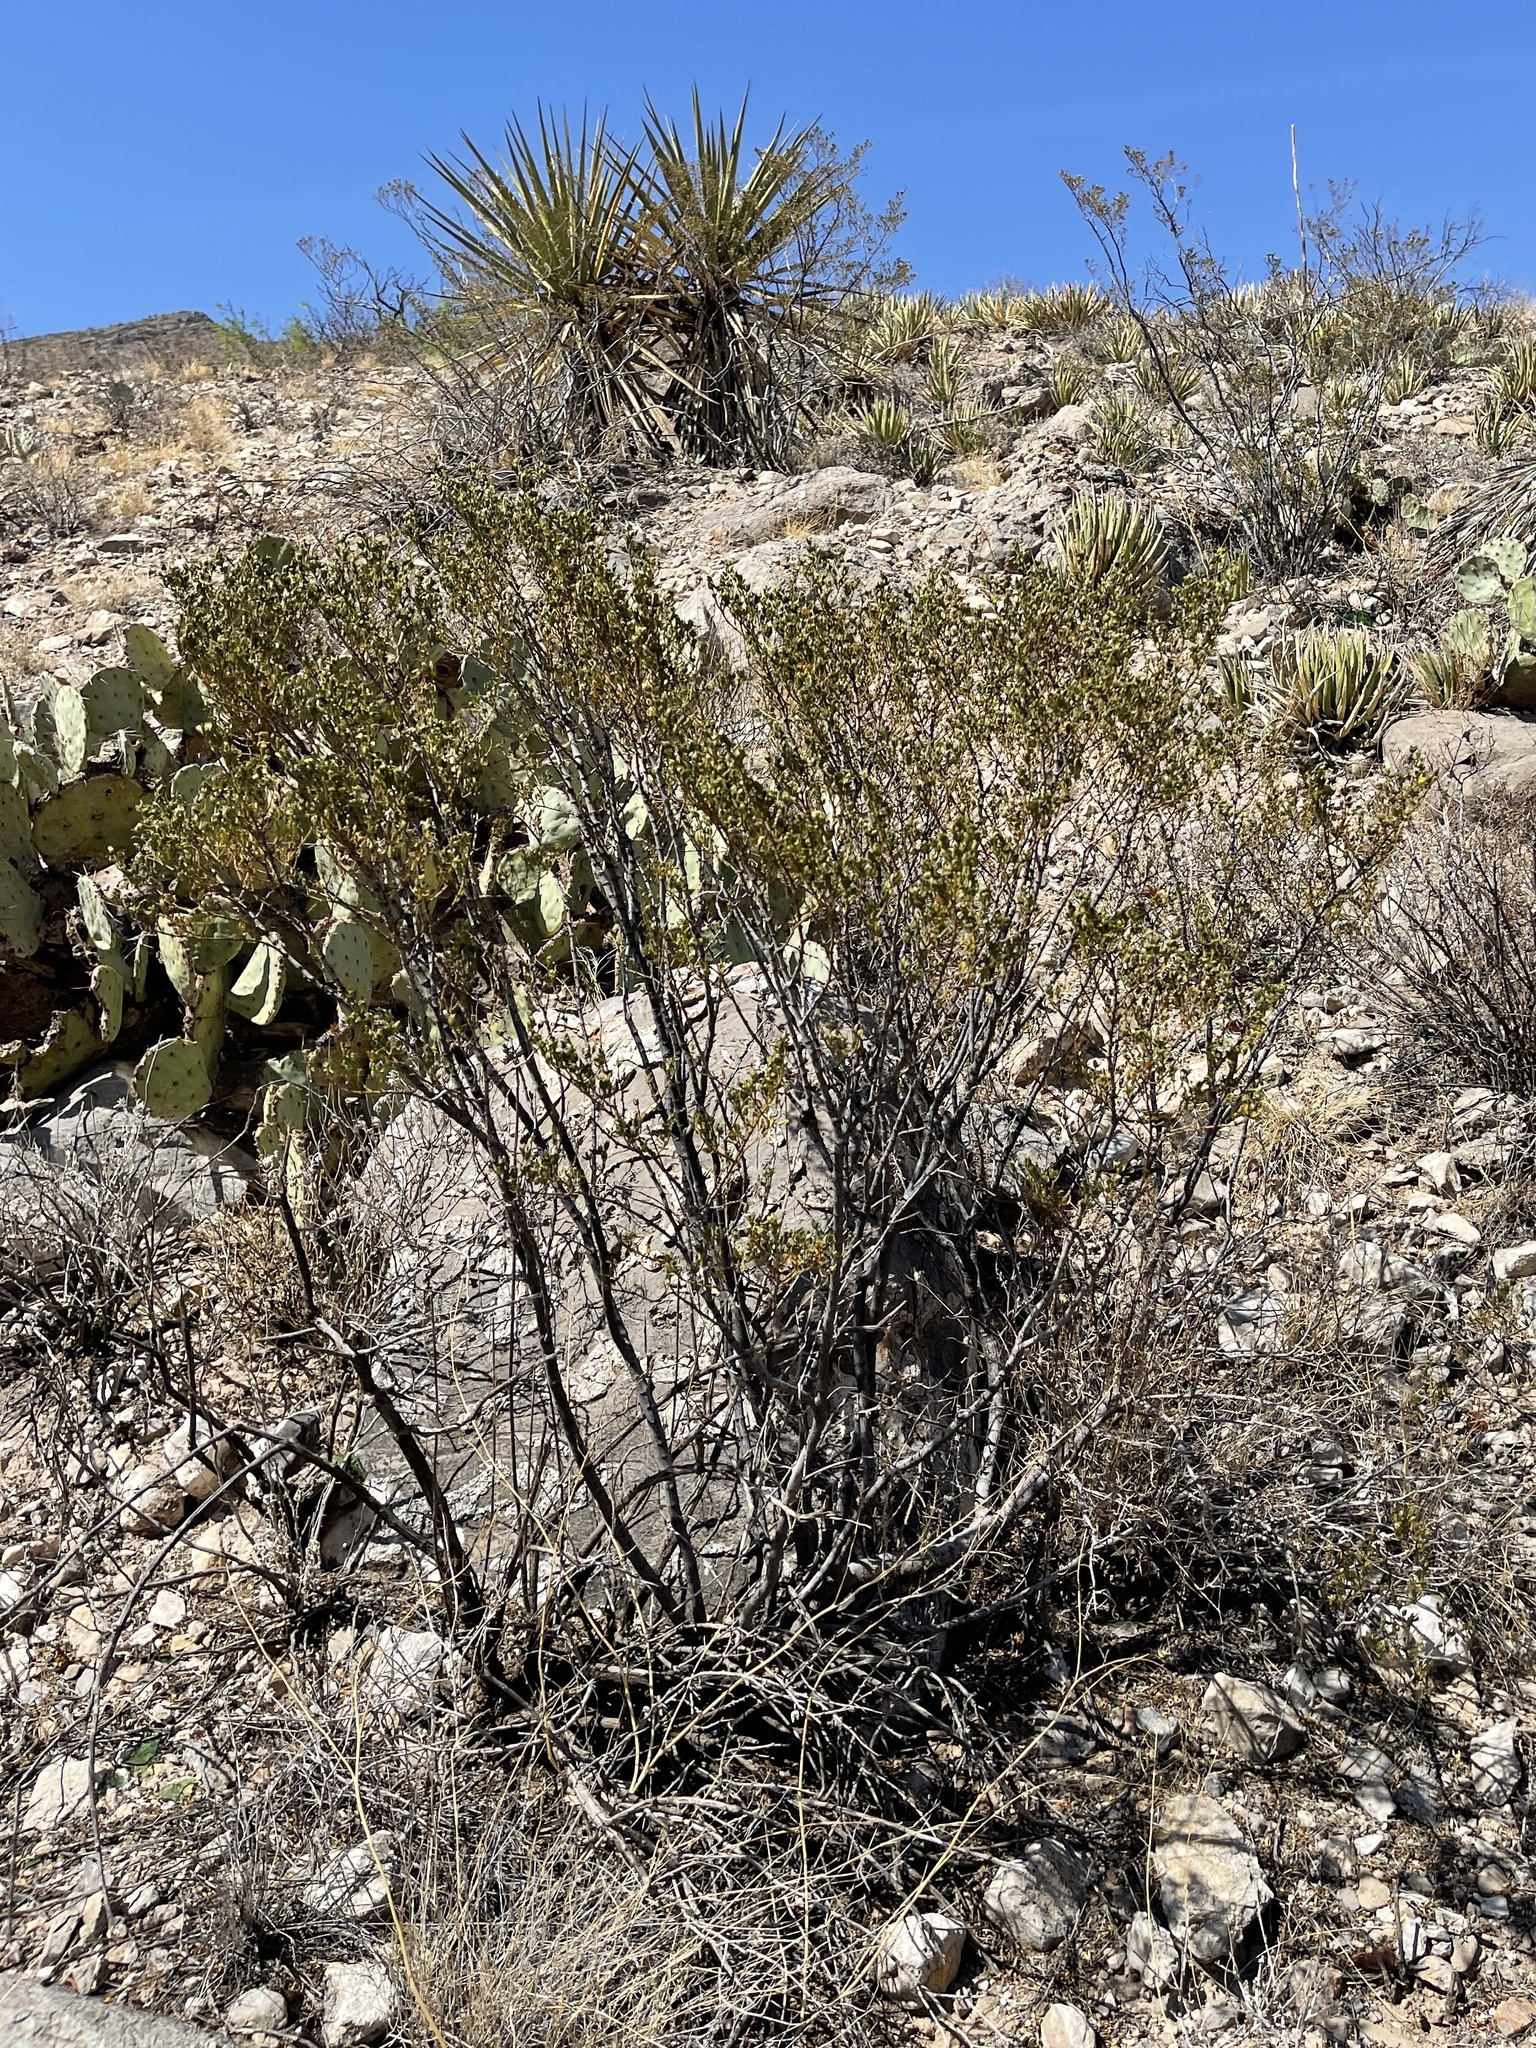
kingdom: Plantae
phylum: Tracheophyta
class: Magnoliopsida
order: Zygophyllales
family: Zygophyllaceae
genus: Larrea
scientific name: Larrea tridentata
